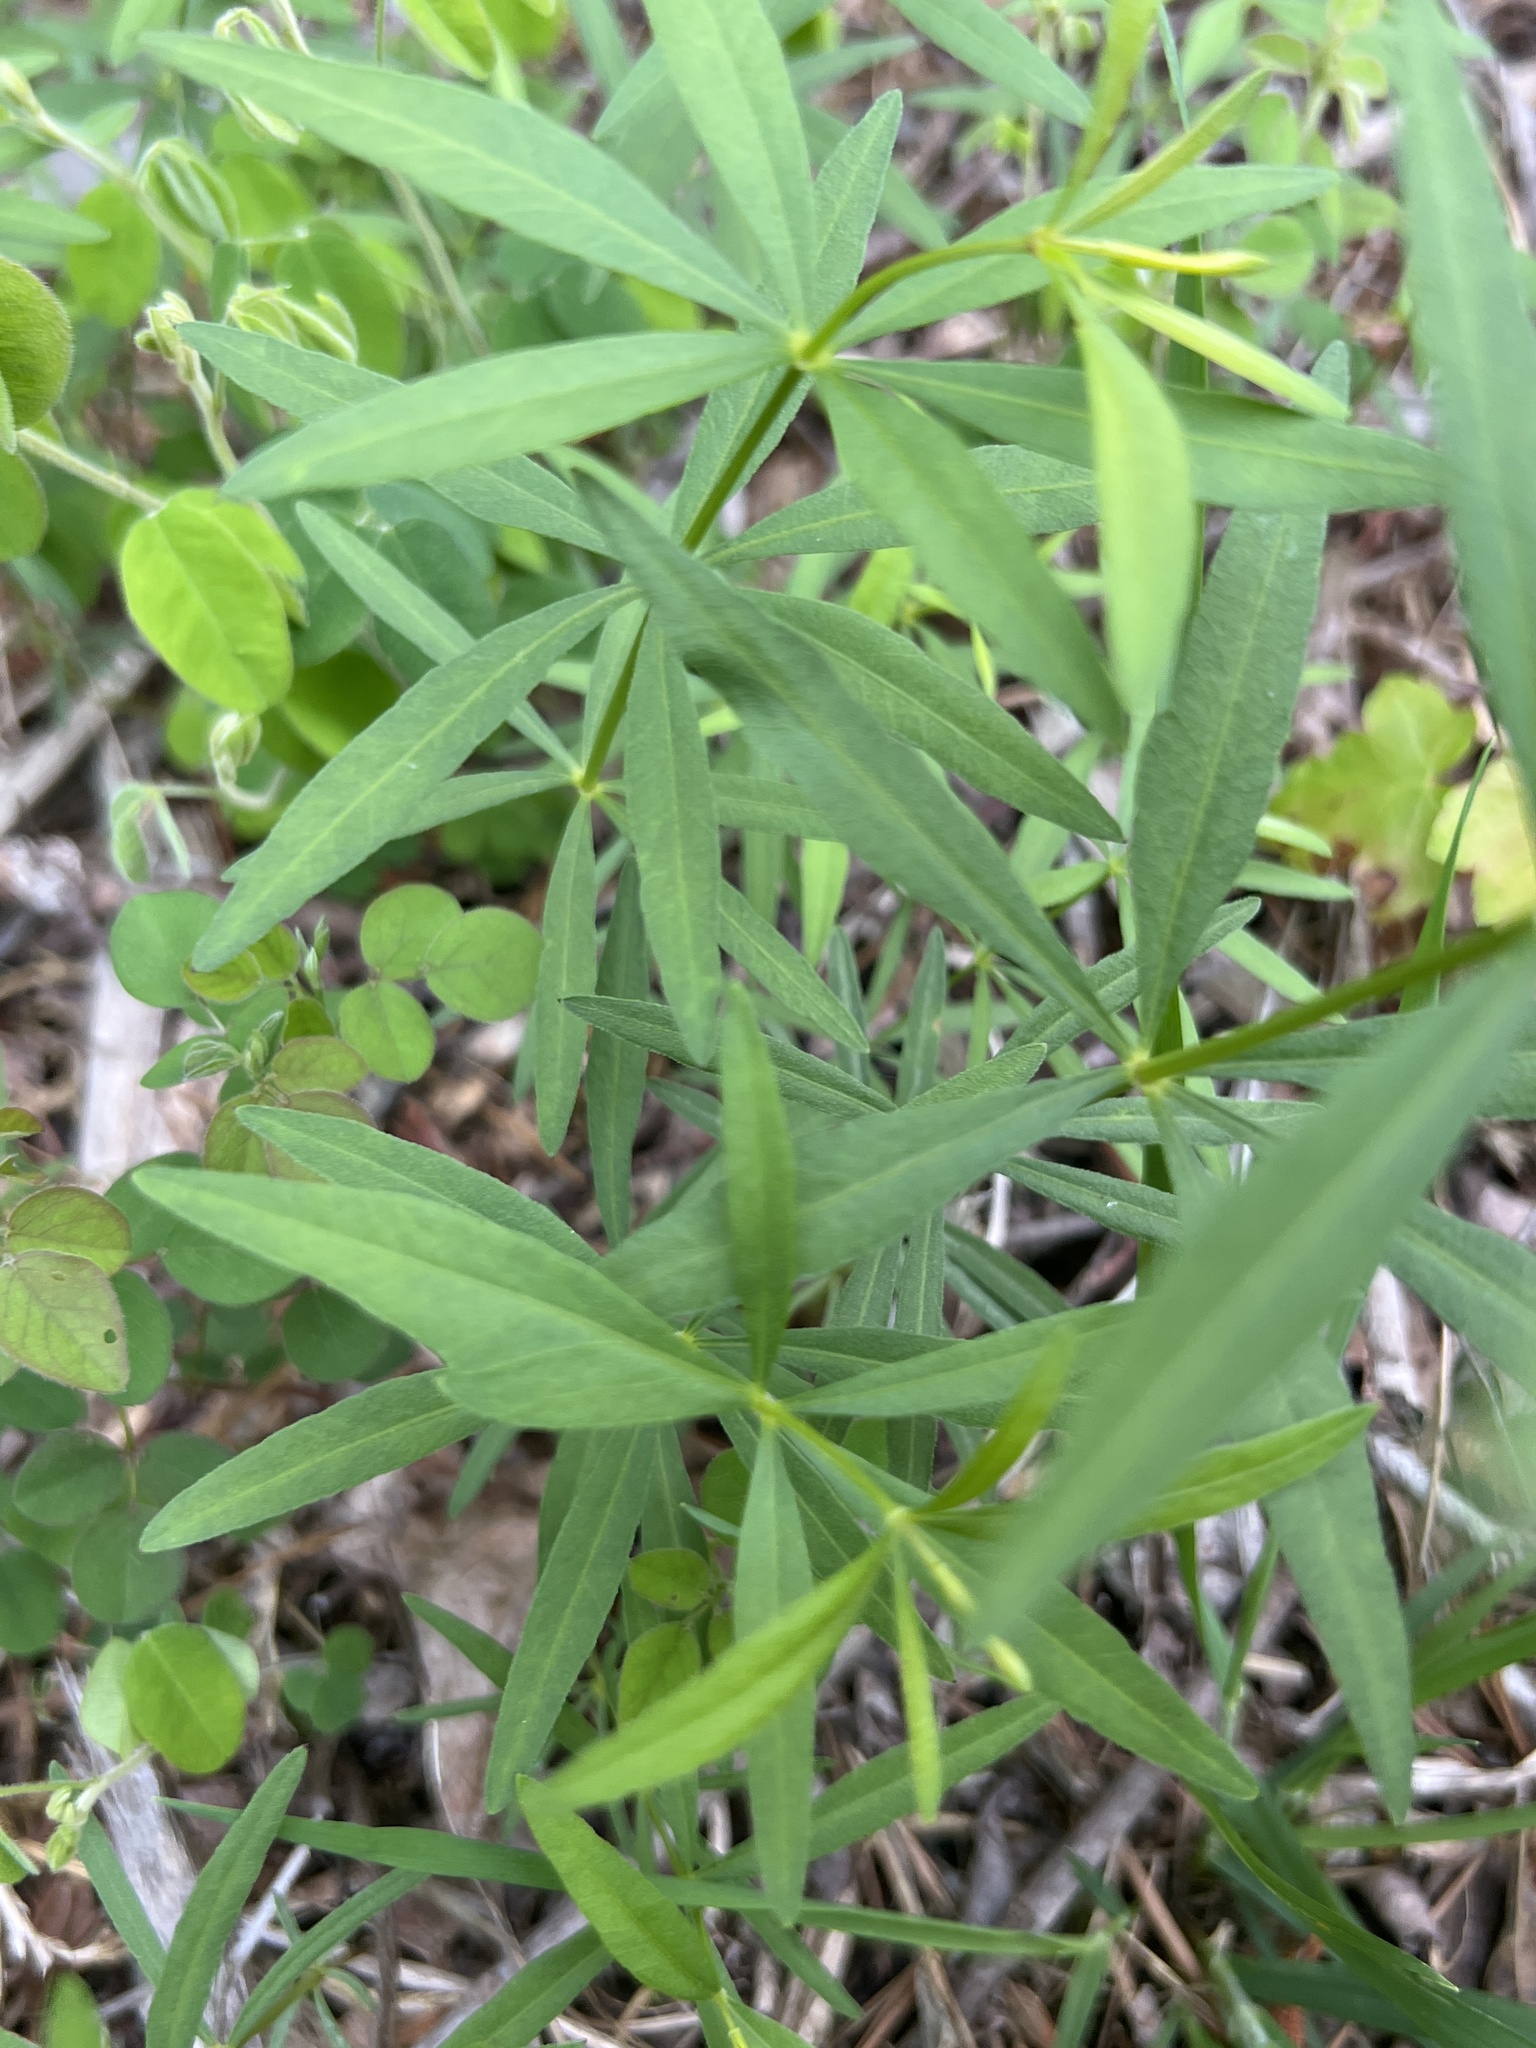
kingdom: Plantae
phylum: Tracheophyta
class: Magnoliopsida
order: Asterales
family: Asteraceae
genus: Coreopsis
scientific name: Coreopsis major
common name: Forest tickseed
